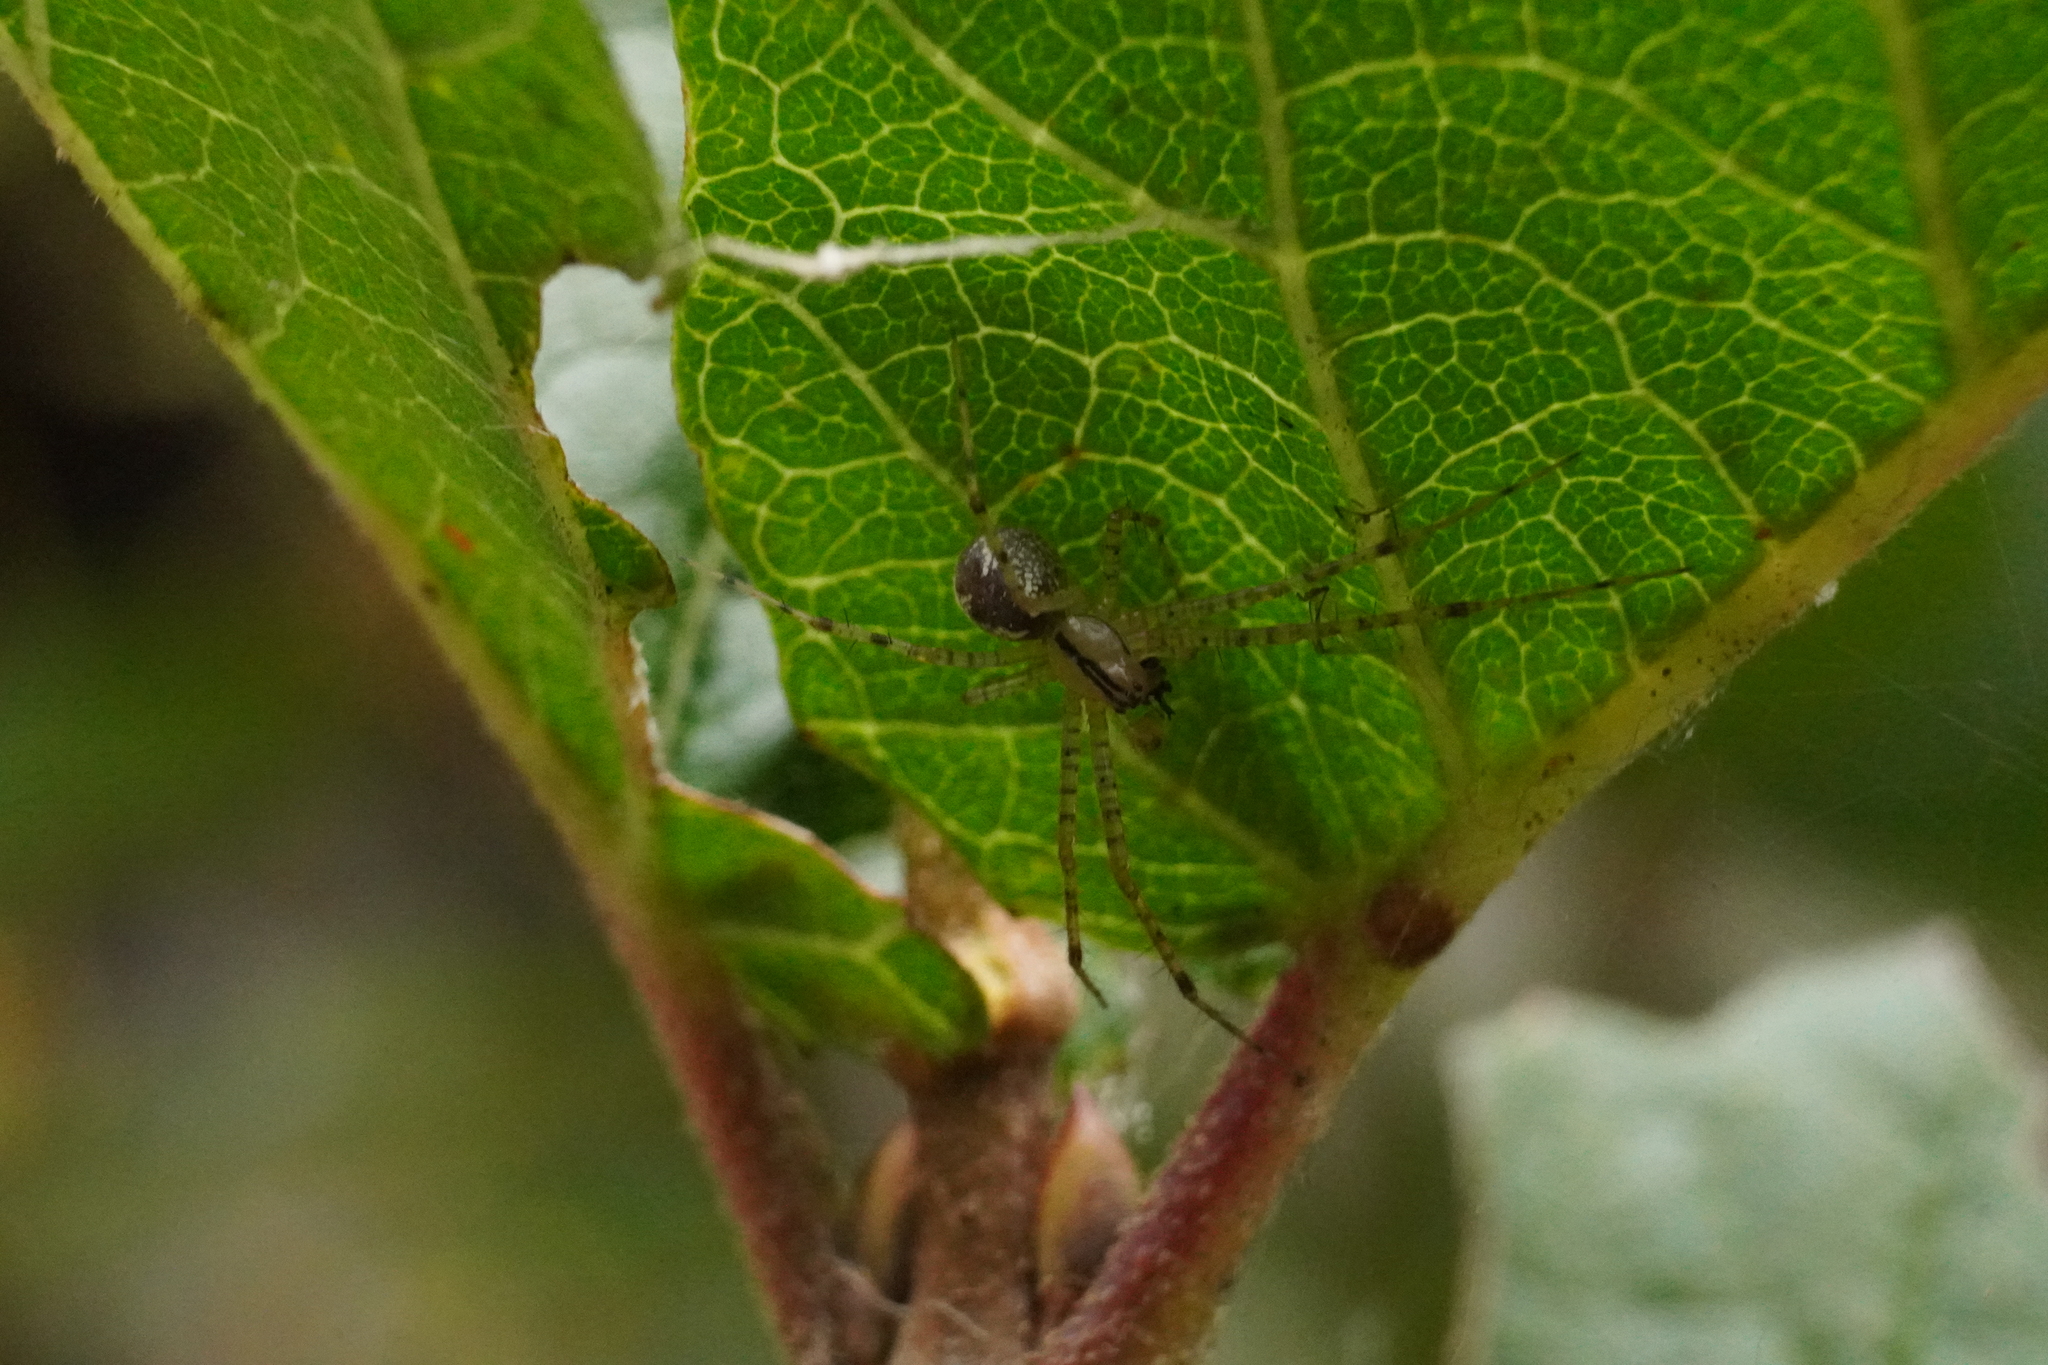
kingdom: Animalia
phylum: Arthropoda
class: Arachnida
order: Araneae
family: Linyphiidae
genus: Pityohyphantes
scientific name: Pityohyphantes costatus
